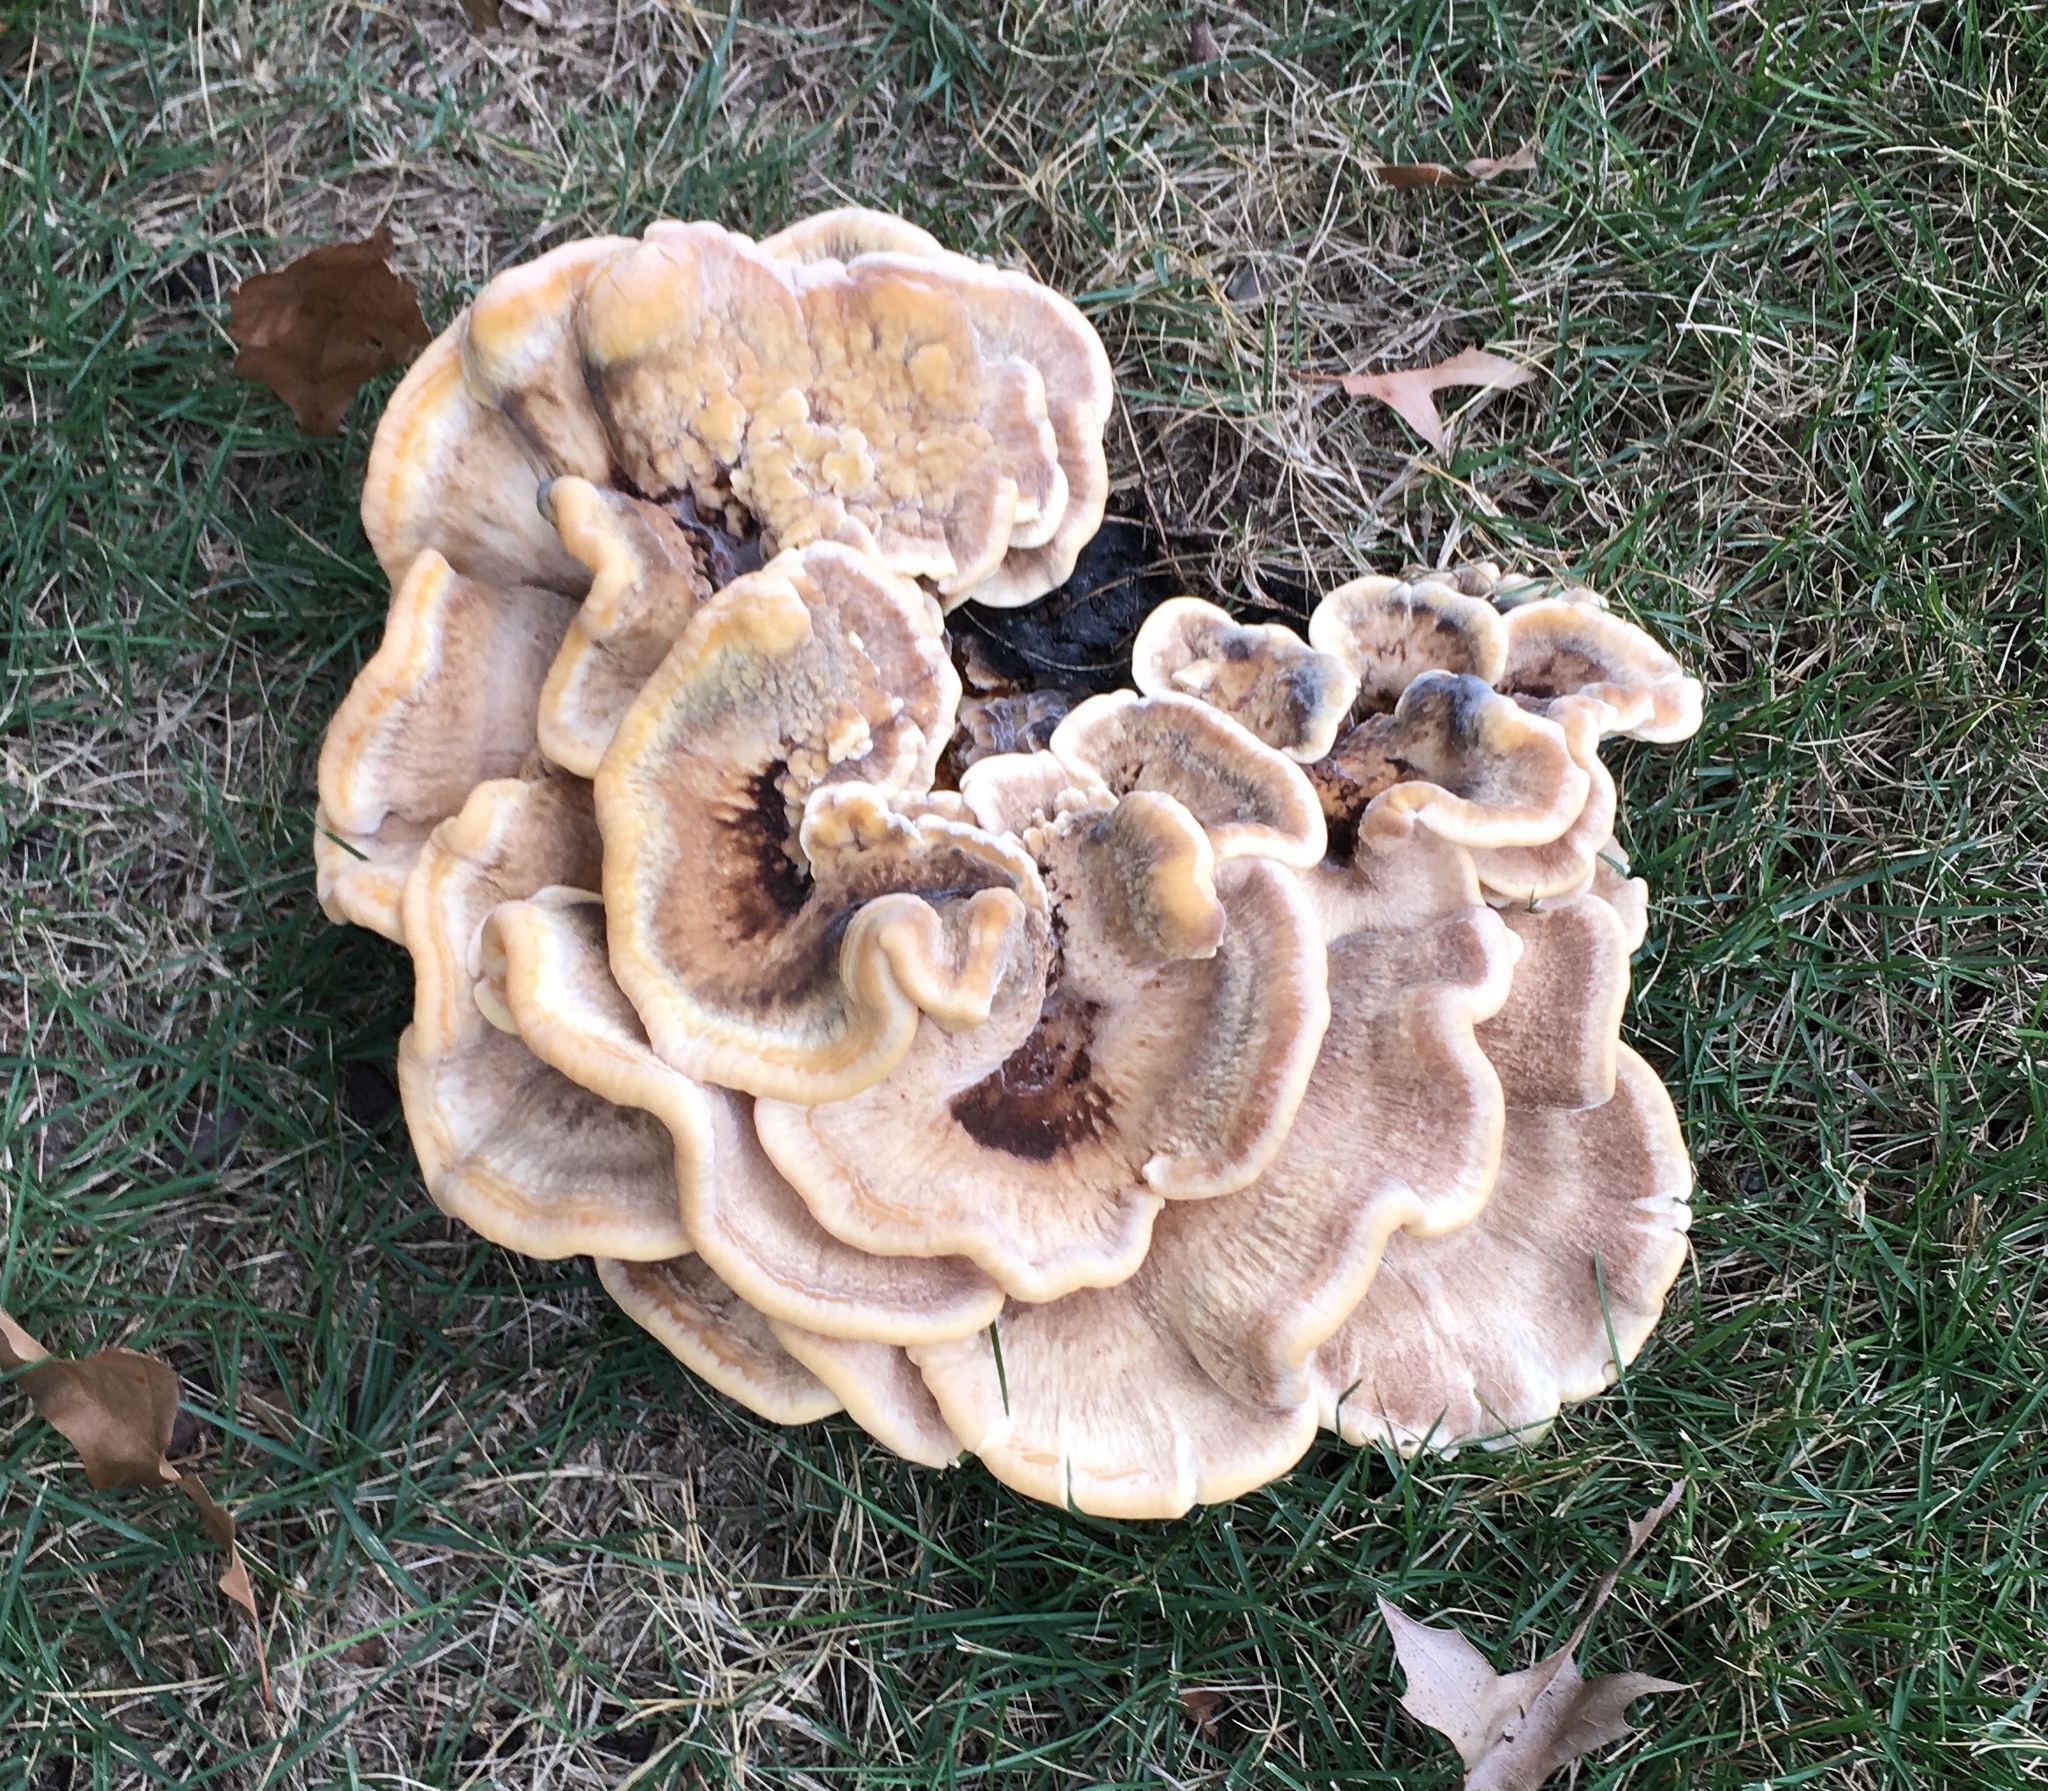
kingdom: Fungi
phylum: Basidiomycota
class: Agaricomycetes
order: Polyporales
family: Meripilaceae
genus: Meripilus
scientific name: Meripilus sumstinei
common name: Black-staining polypore
